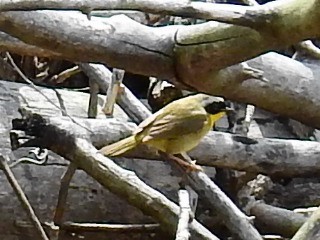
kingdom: Animalia
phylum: Chordata
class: Aves
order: Passeriformes
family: Parulidae
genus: Geothlypis
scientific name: Geothlypis trichas
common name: Common yellowthroat
